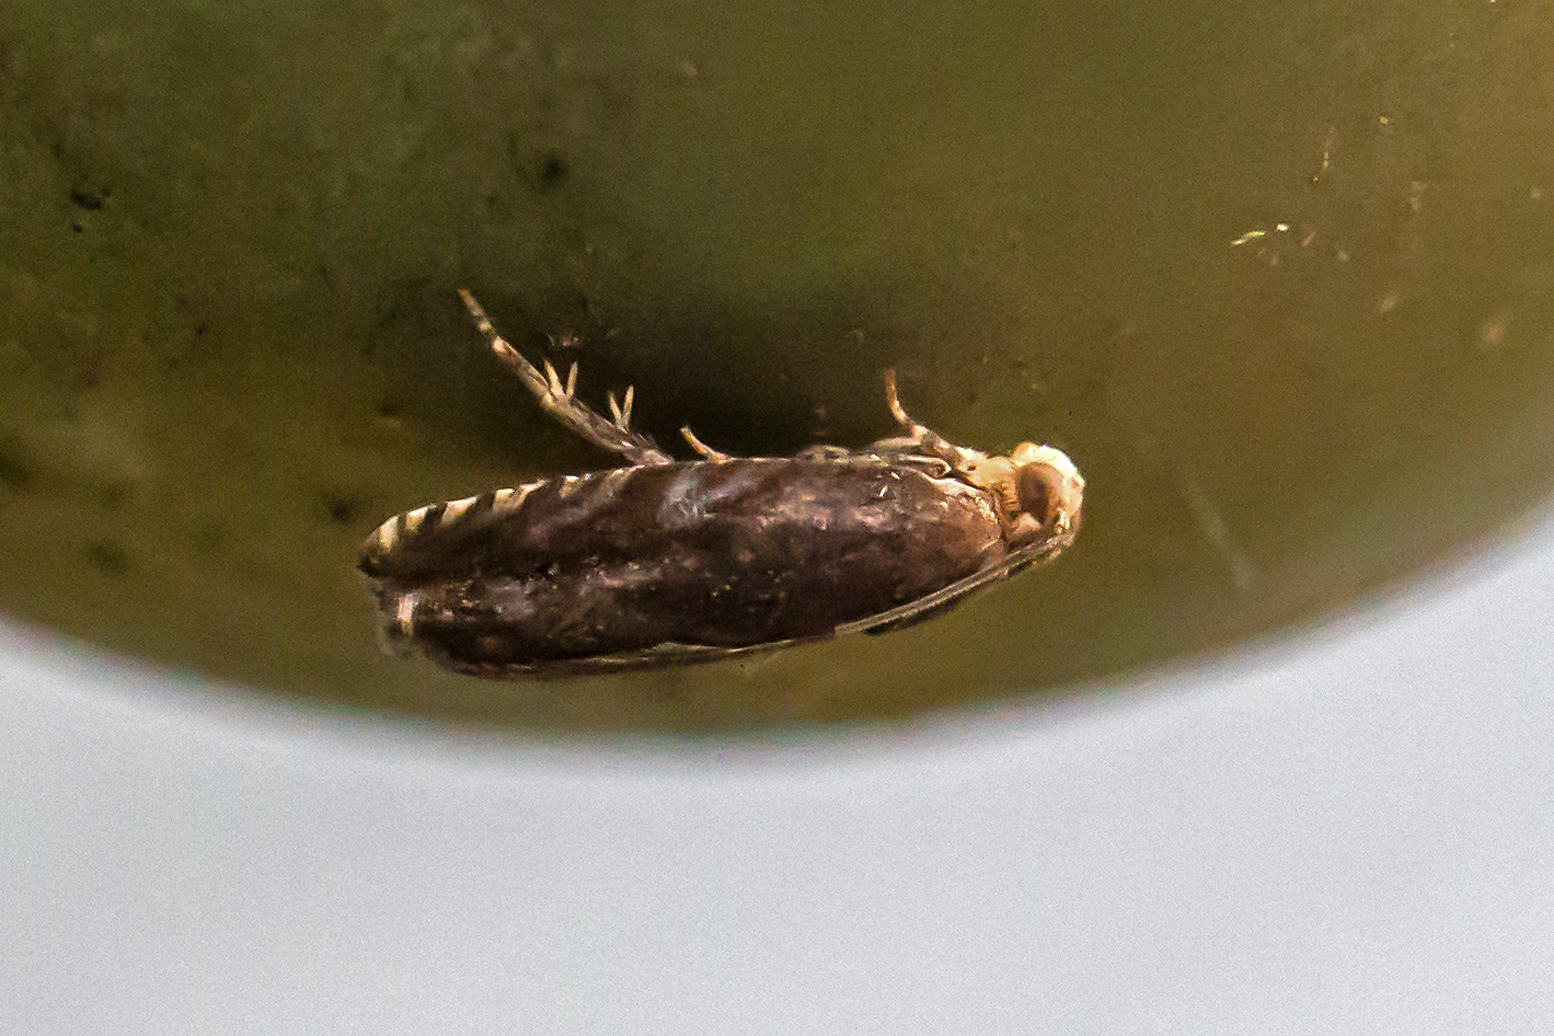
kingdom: Animalia
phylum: Arthropoda
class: Insecta
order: Lepidoptera
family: Tortricidae
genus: Cydia
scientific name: Cydia caryana
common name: Hickory shuckworm moth
